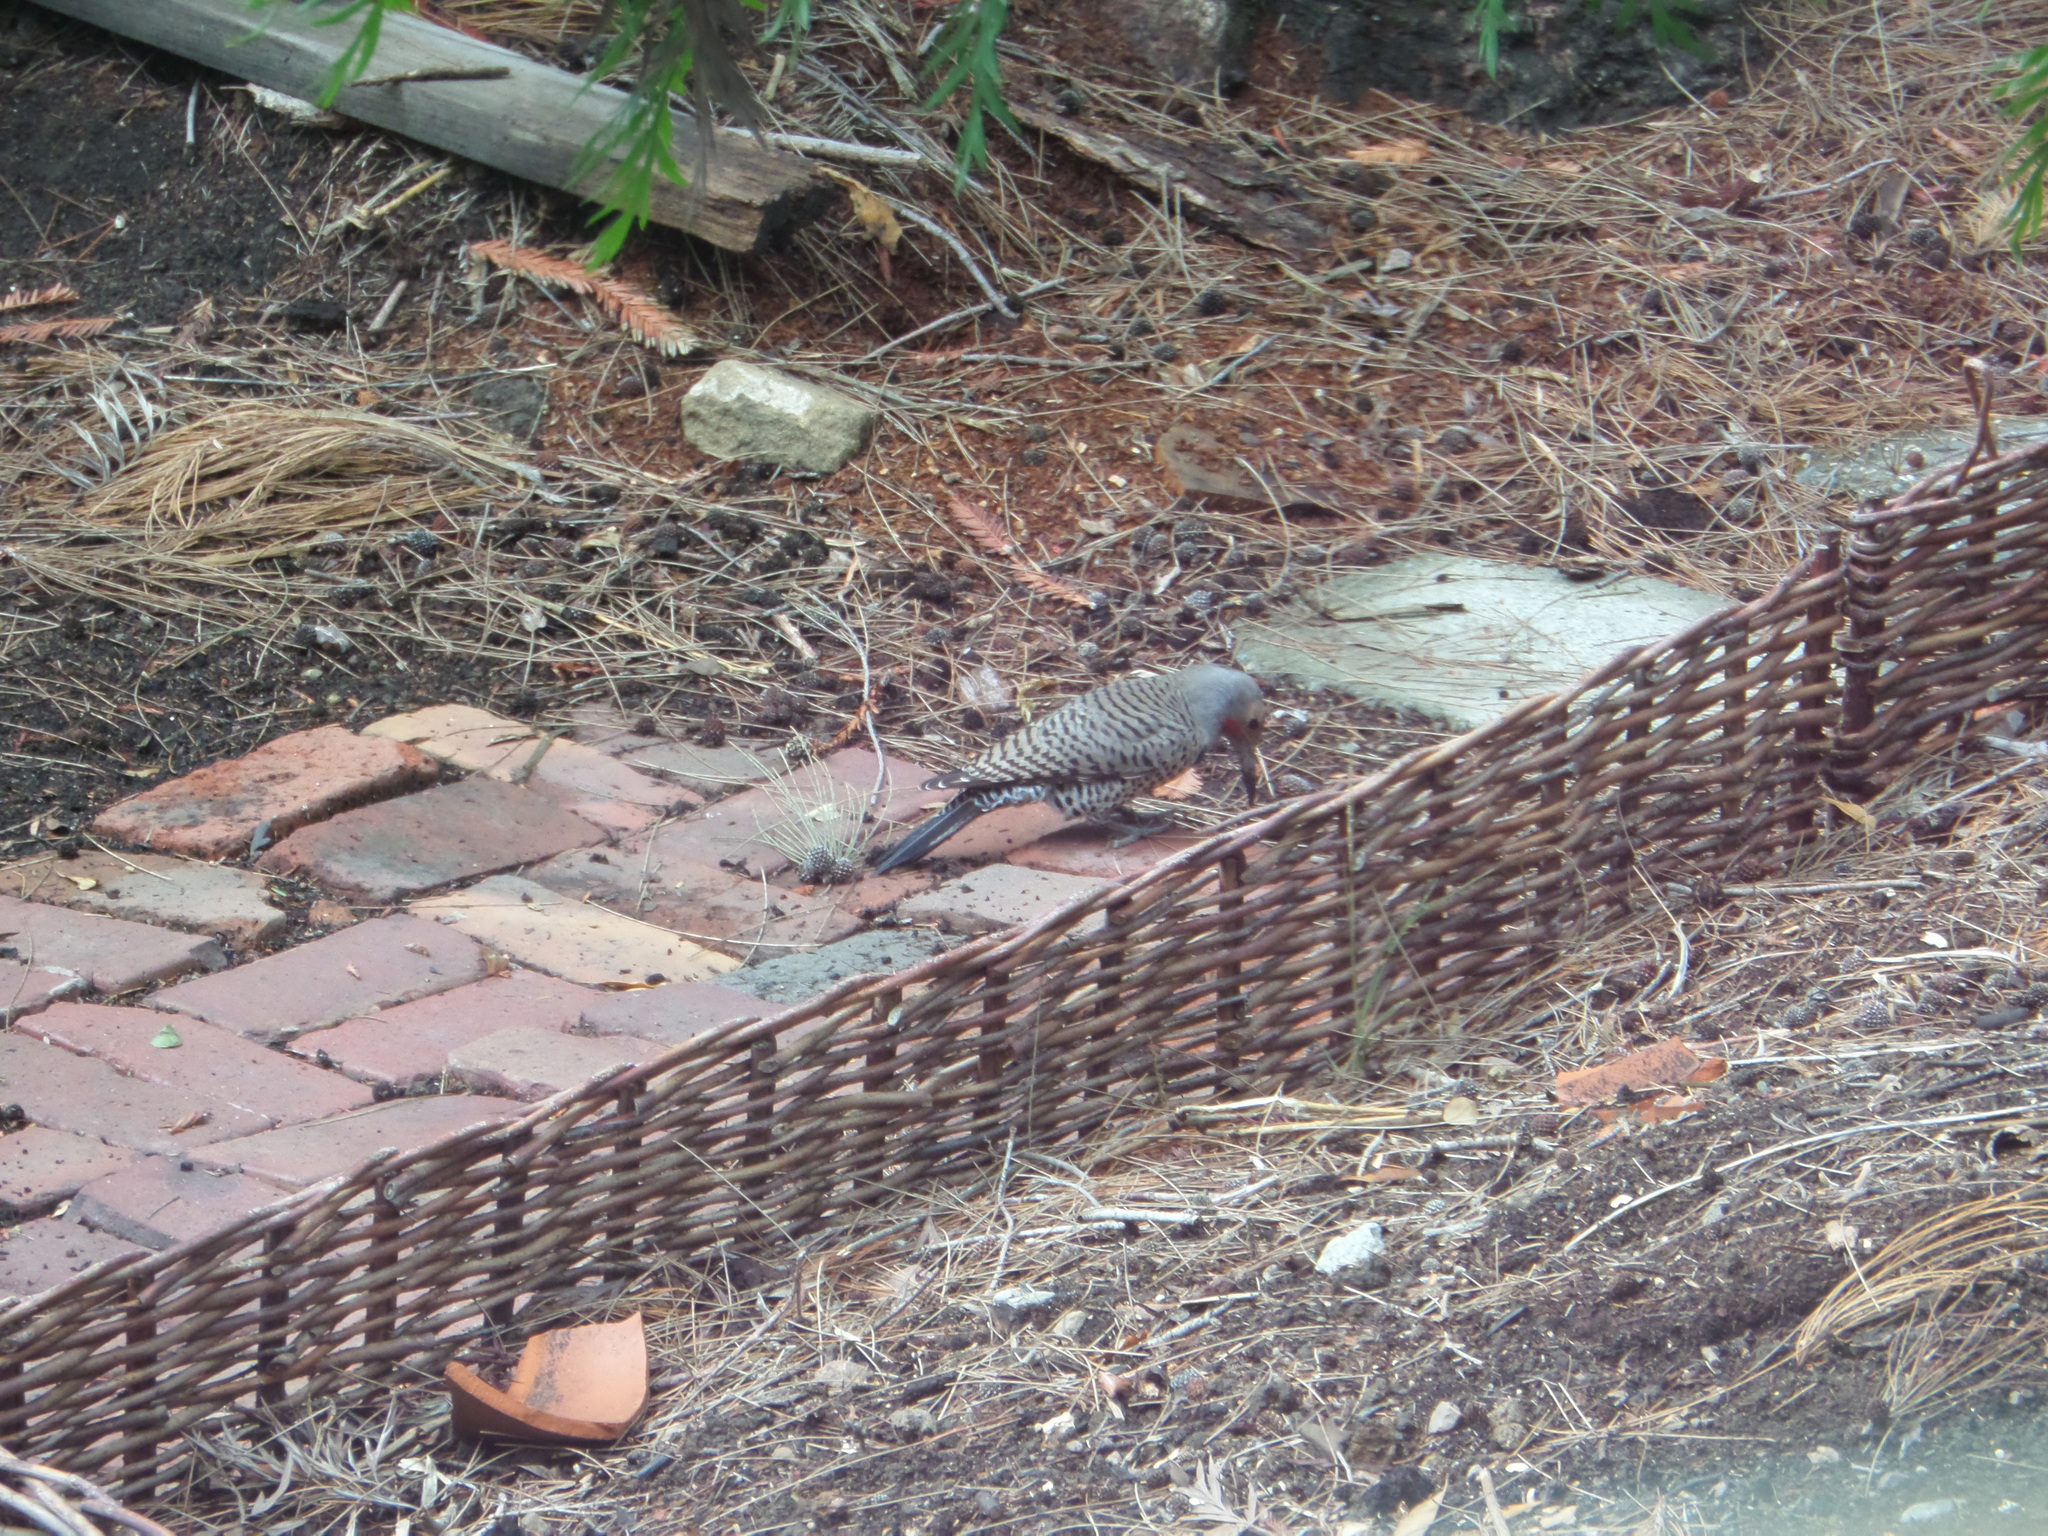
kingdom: Animalia
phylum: Chordata
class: Aves
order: Piciformes
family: Picidae
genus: Colaptes
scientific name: Colaptes auratus
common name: Northern flicker
